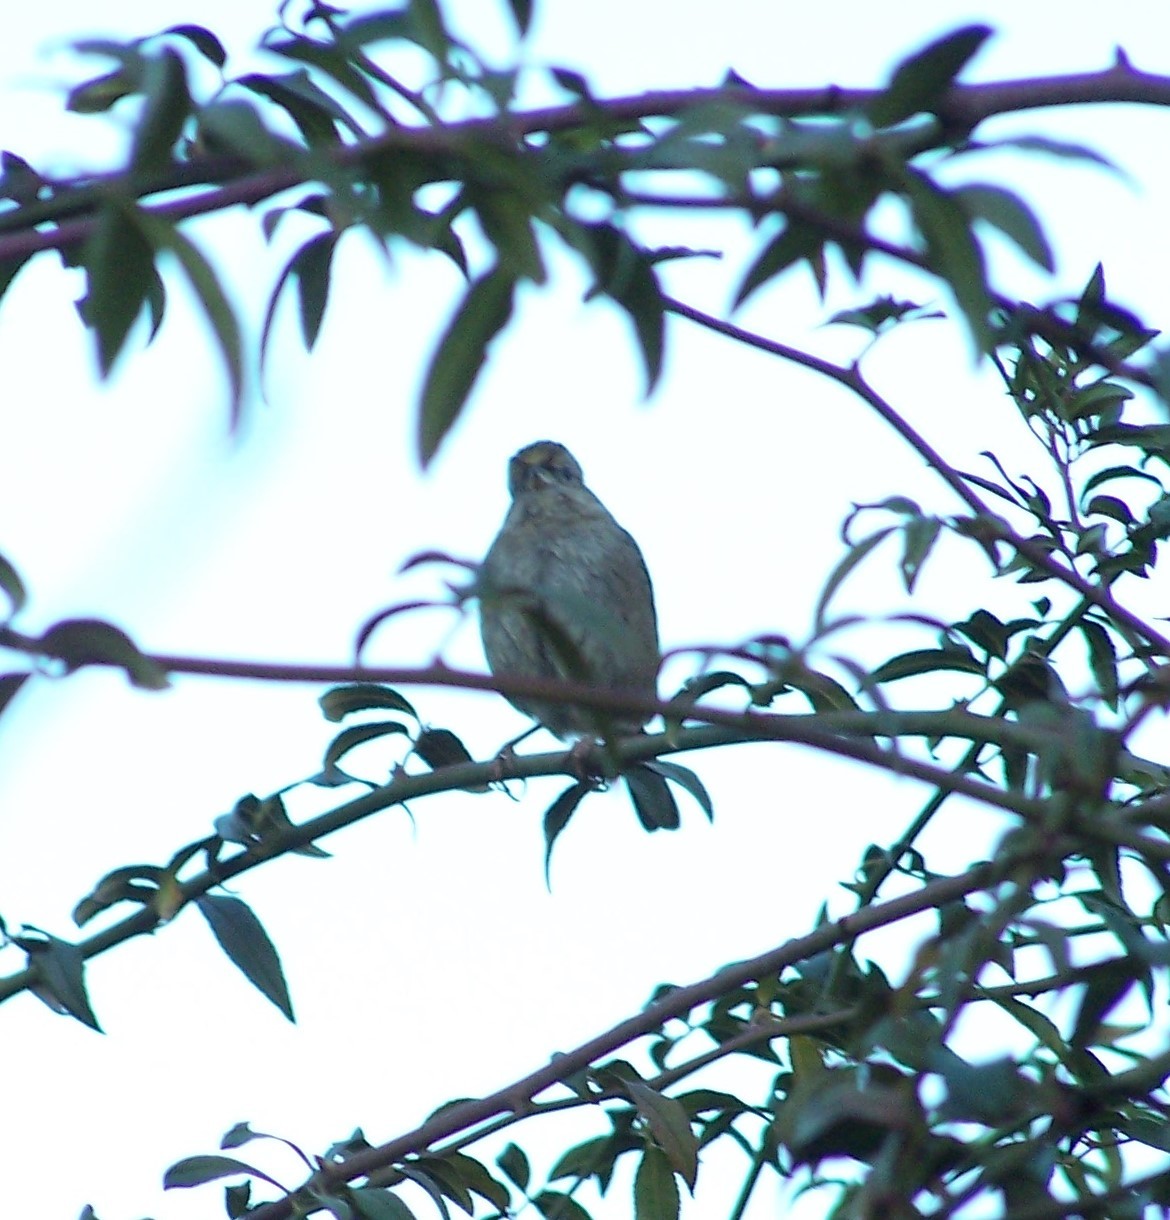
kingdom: Animalia
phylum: Chordata
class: Aves
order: Passeriformes
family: Passerellidae
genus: Zonotrichia
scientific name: Zonotrichia atricapilla
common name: Golden-crowned sparrow
